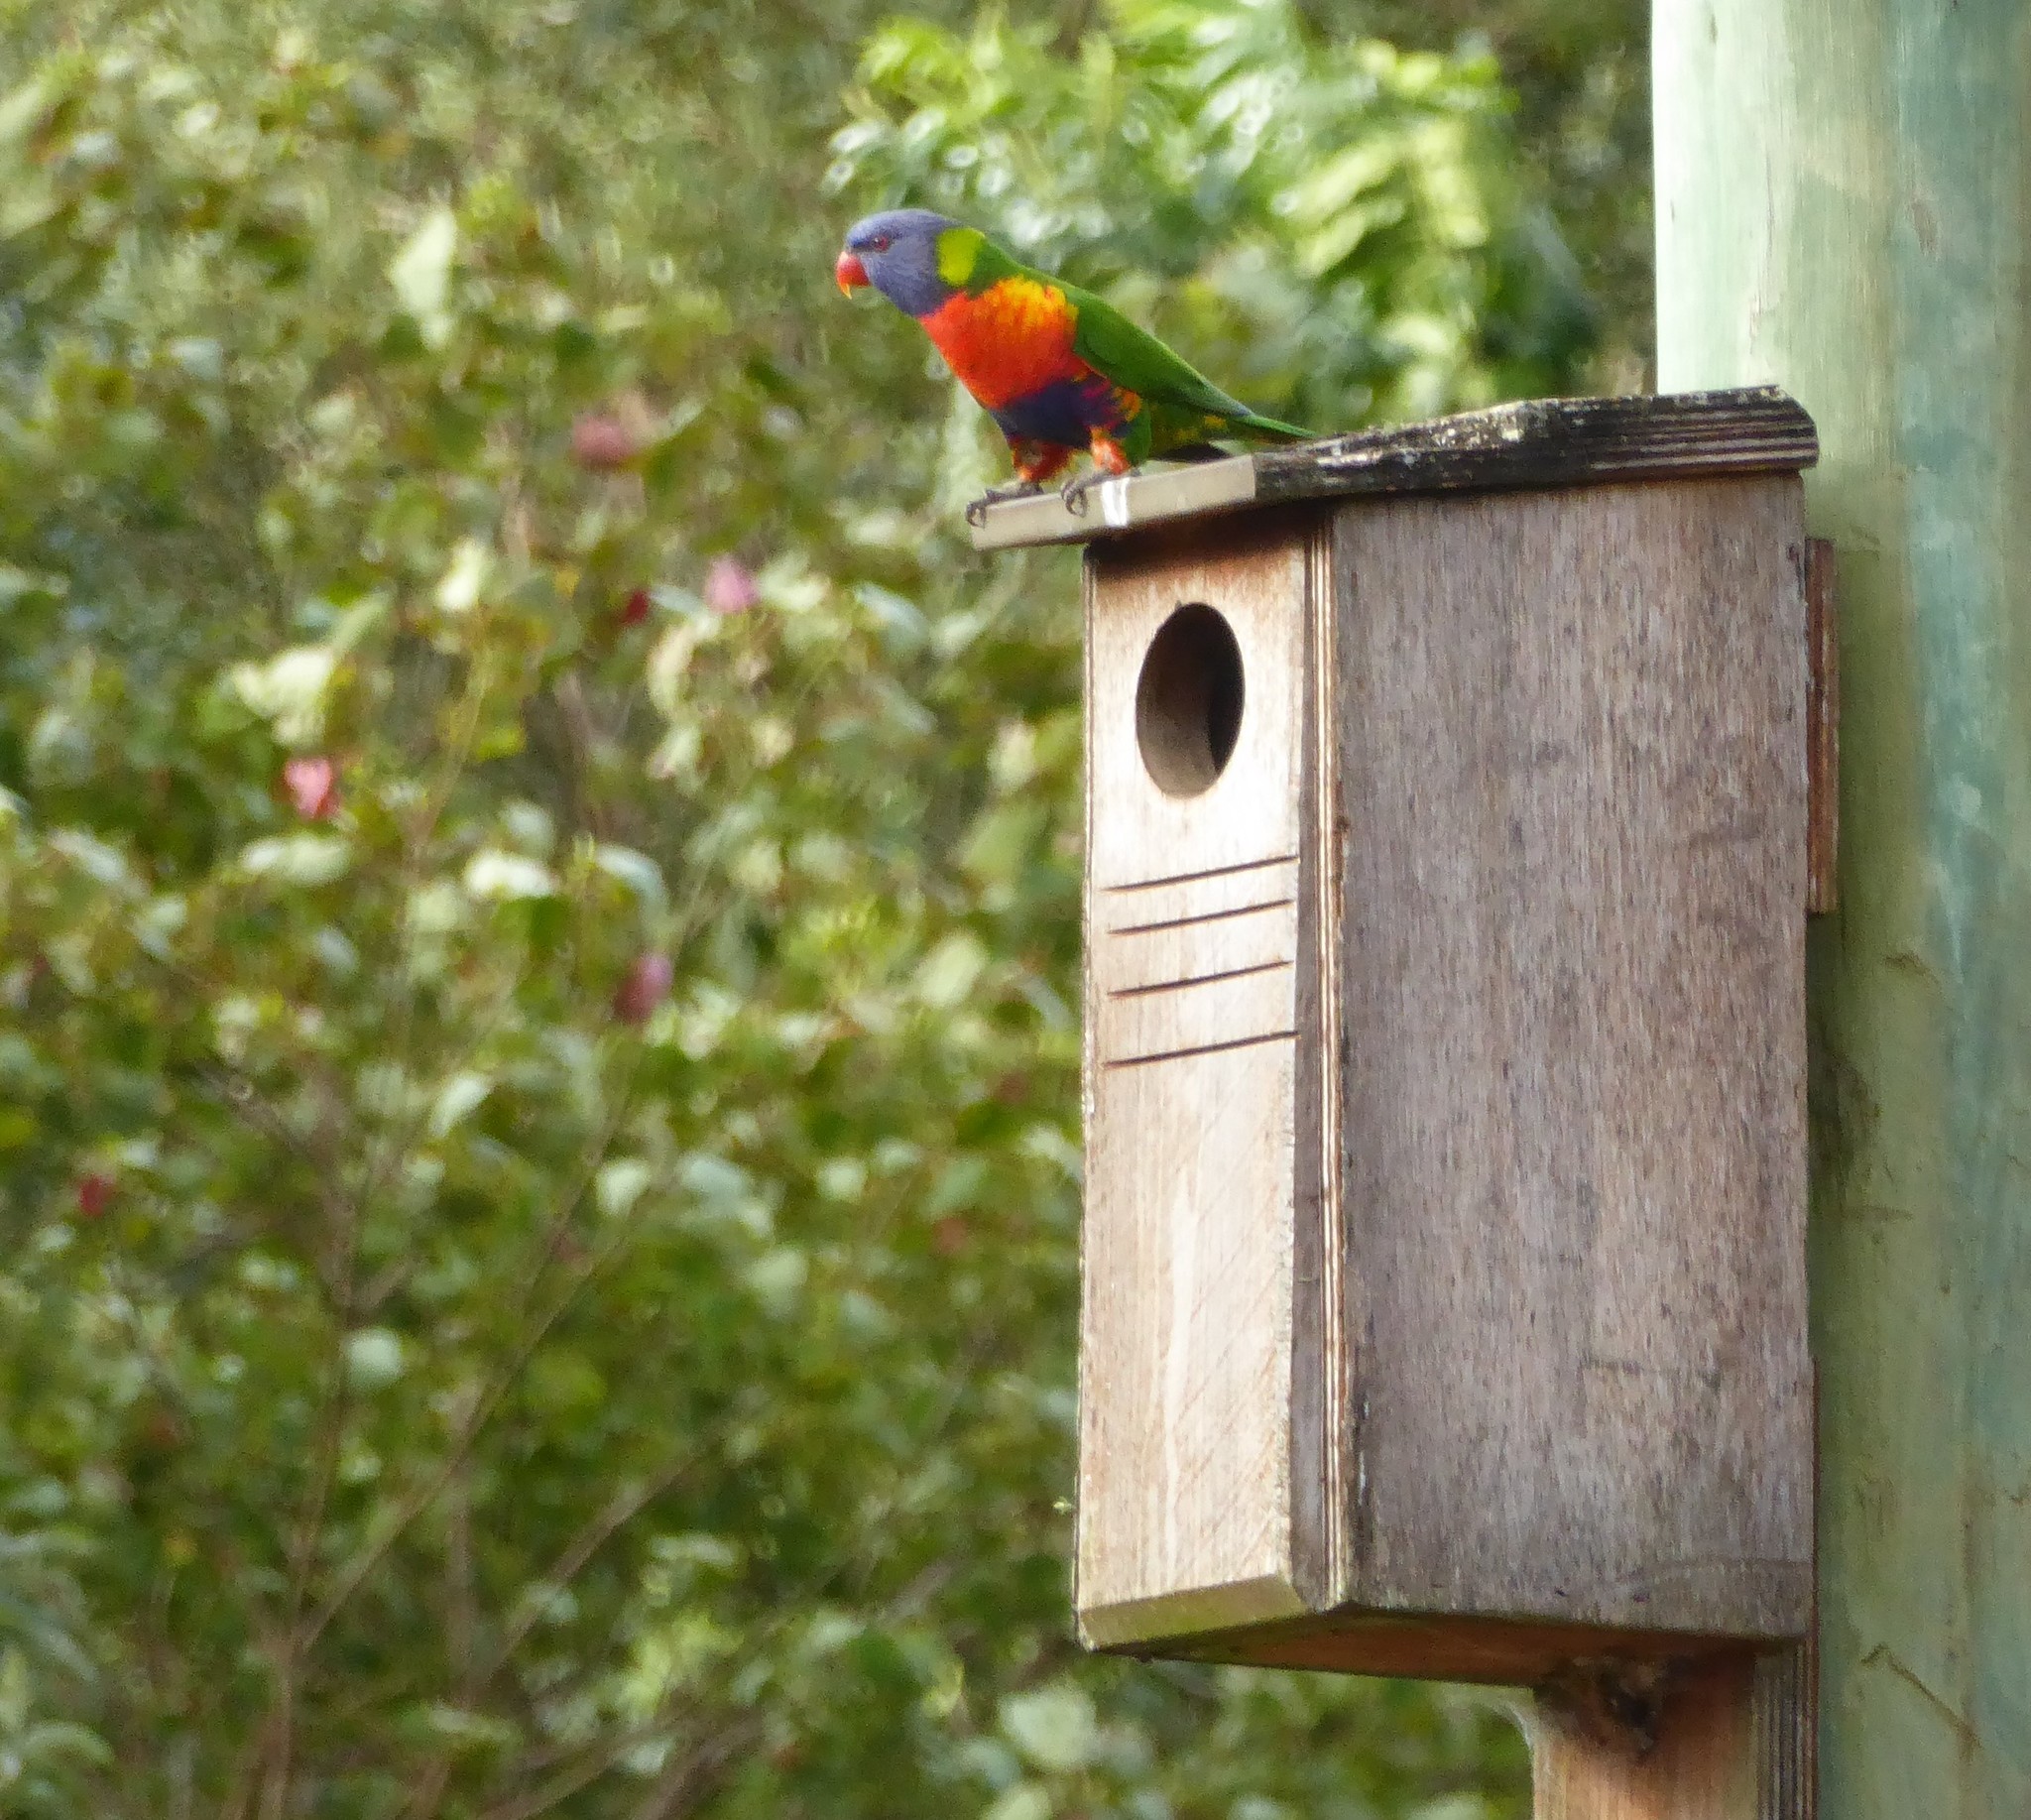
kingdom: Animalia
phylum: Chordata
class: Aves
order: Psittaciformes
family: Psittacidae
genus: Trichoglossus
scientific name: Trichoglossus haematodus
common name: Coconut lorikeet
